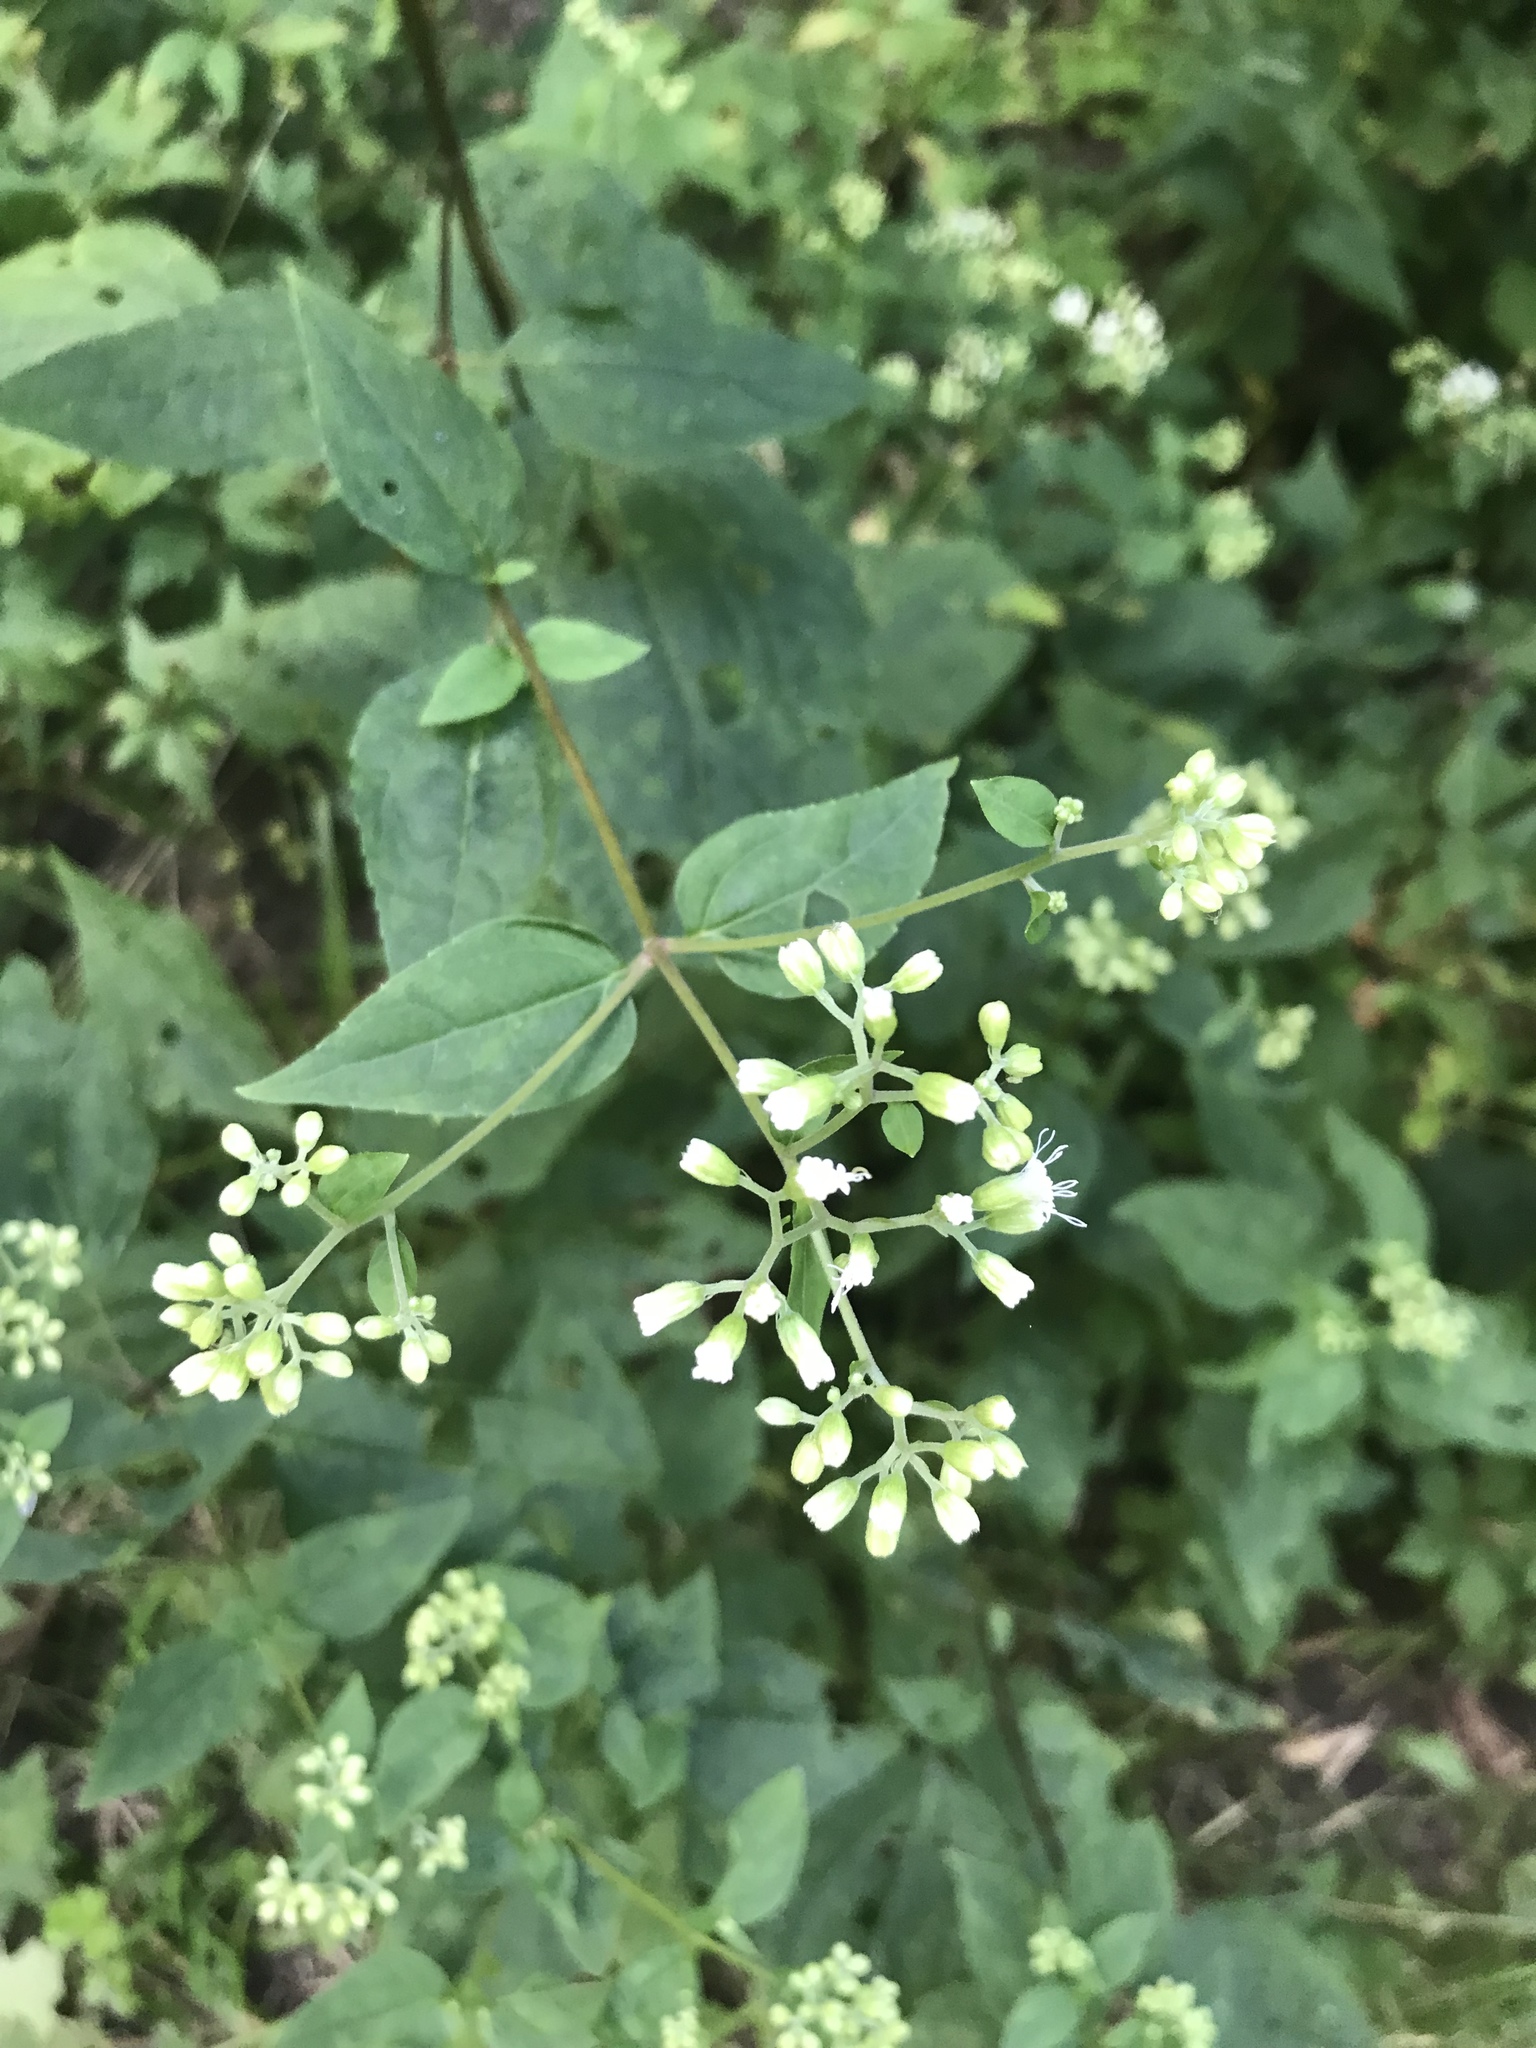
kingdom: Plantae
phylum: Tracheophyta
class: Magnoliopsida
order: Asterales
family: Asteraceae
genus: Ageratina
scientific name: Ageratina altissima
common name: White snakeroot
